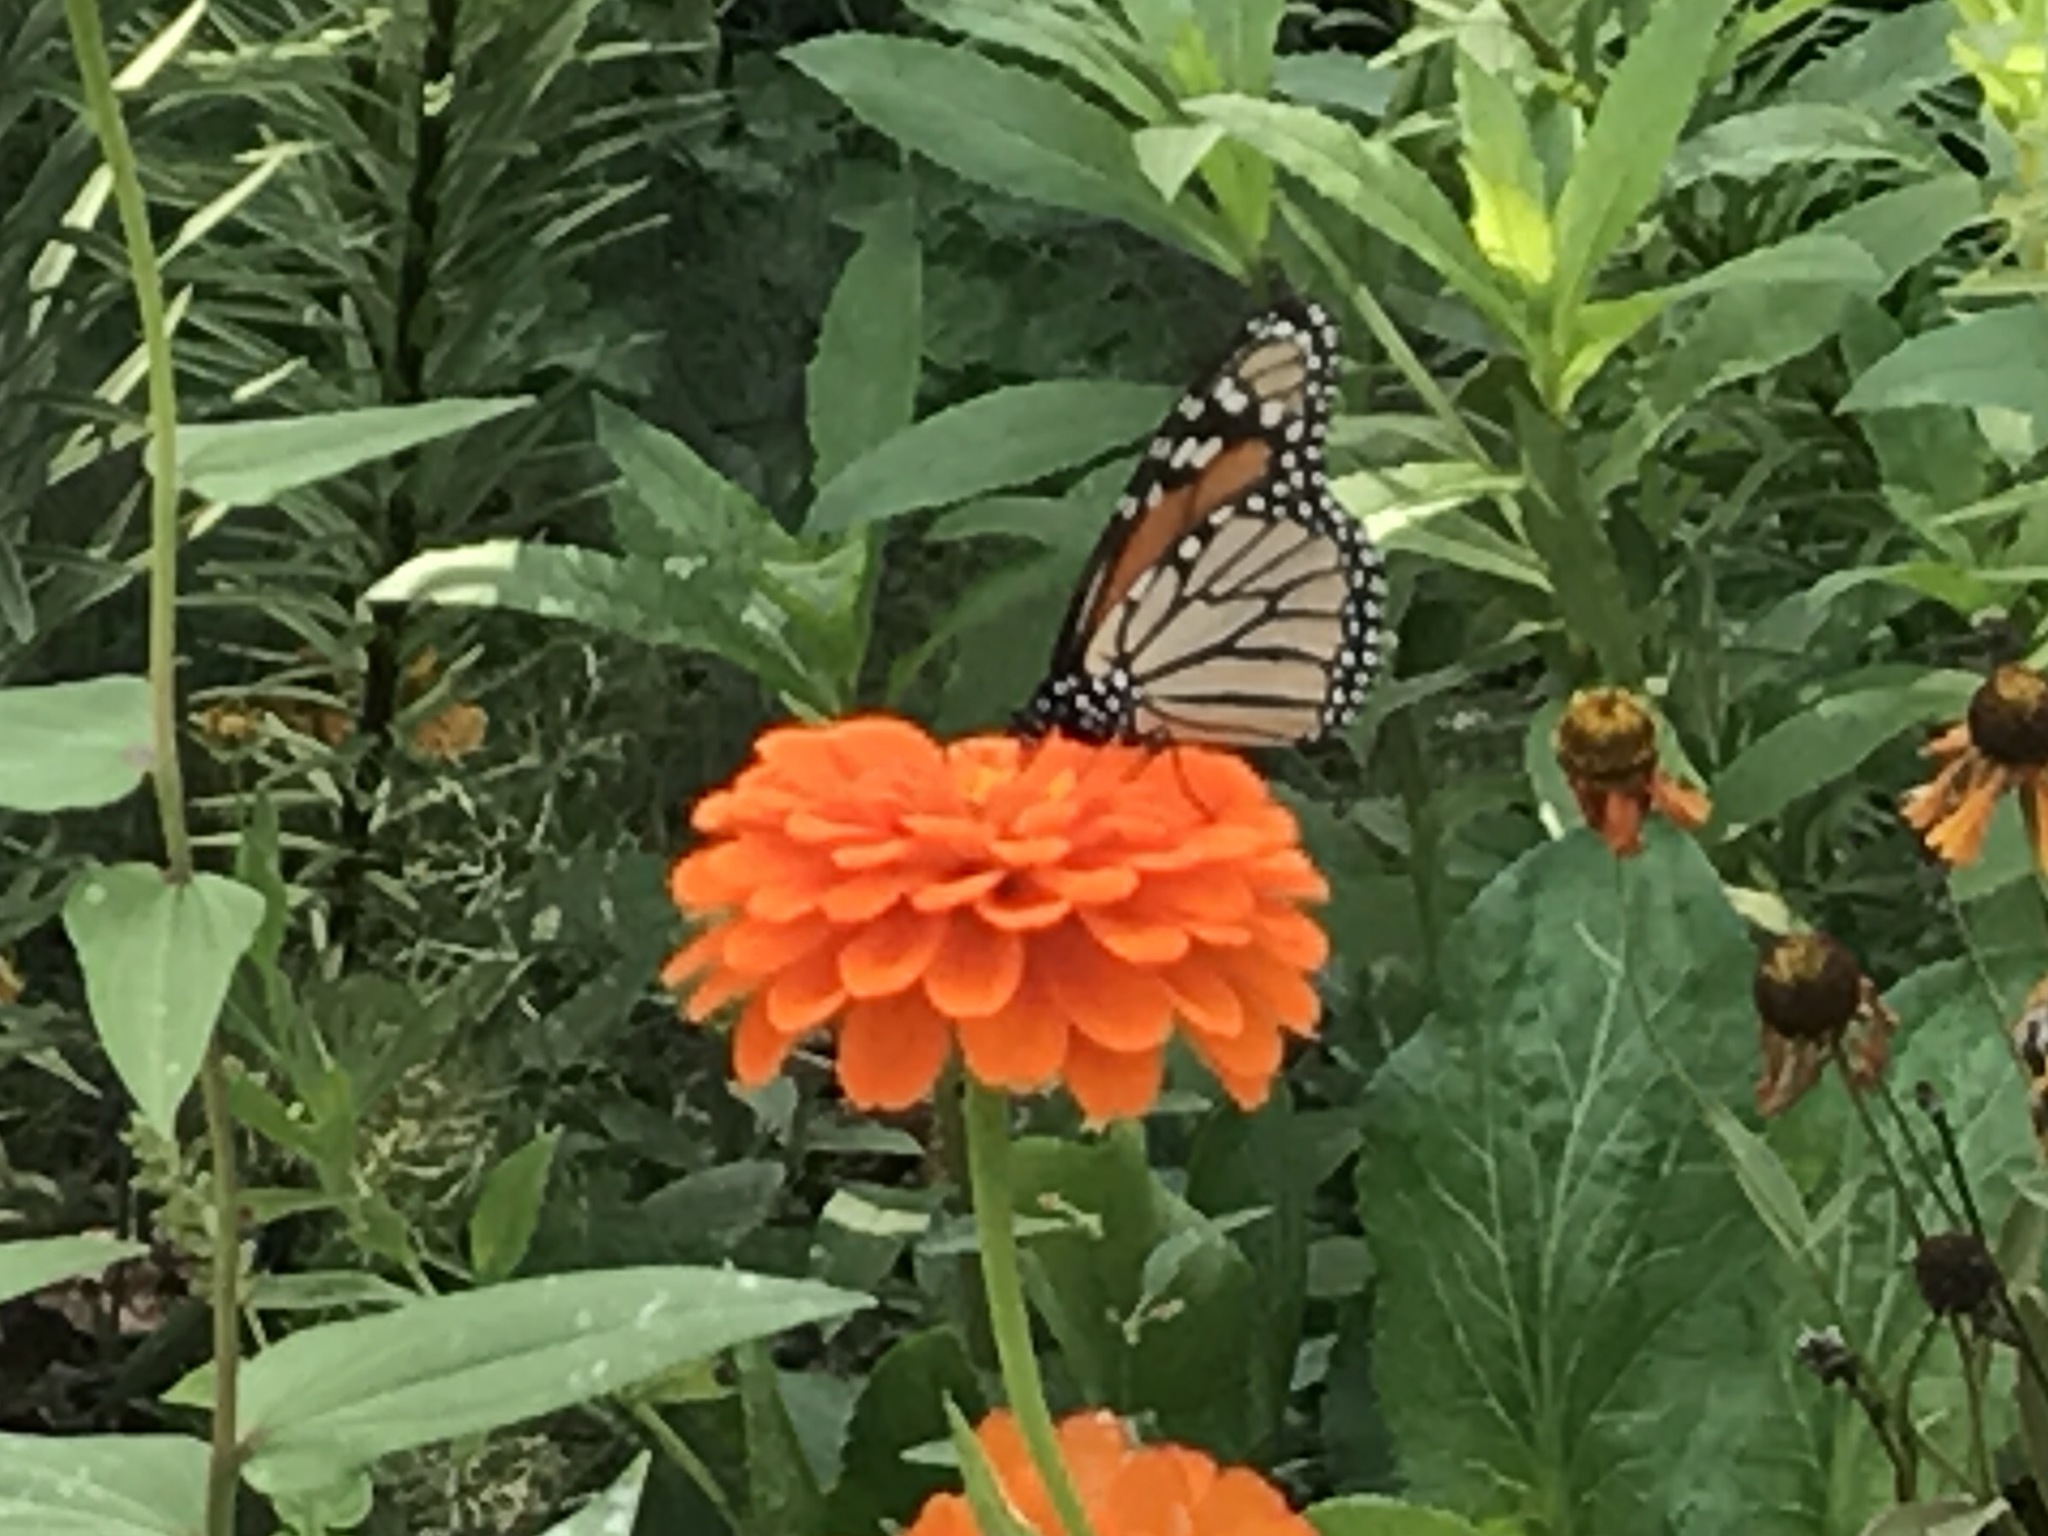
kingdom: Animalia
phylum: Arthropoda
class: Insecta
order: Lepidoptera
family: Nymphalidae
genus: Danaus
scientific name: Danaus plexippus
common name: Monarch
